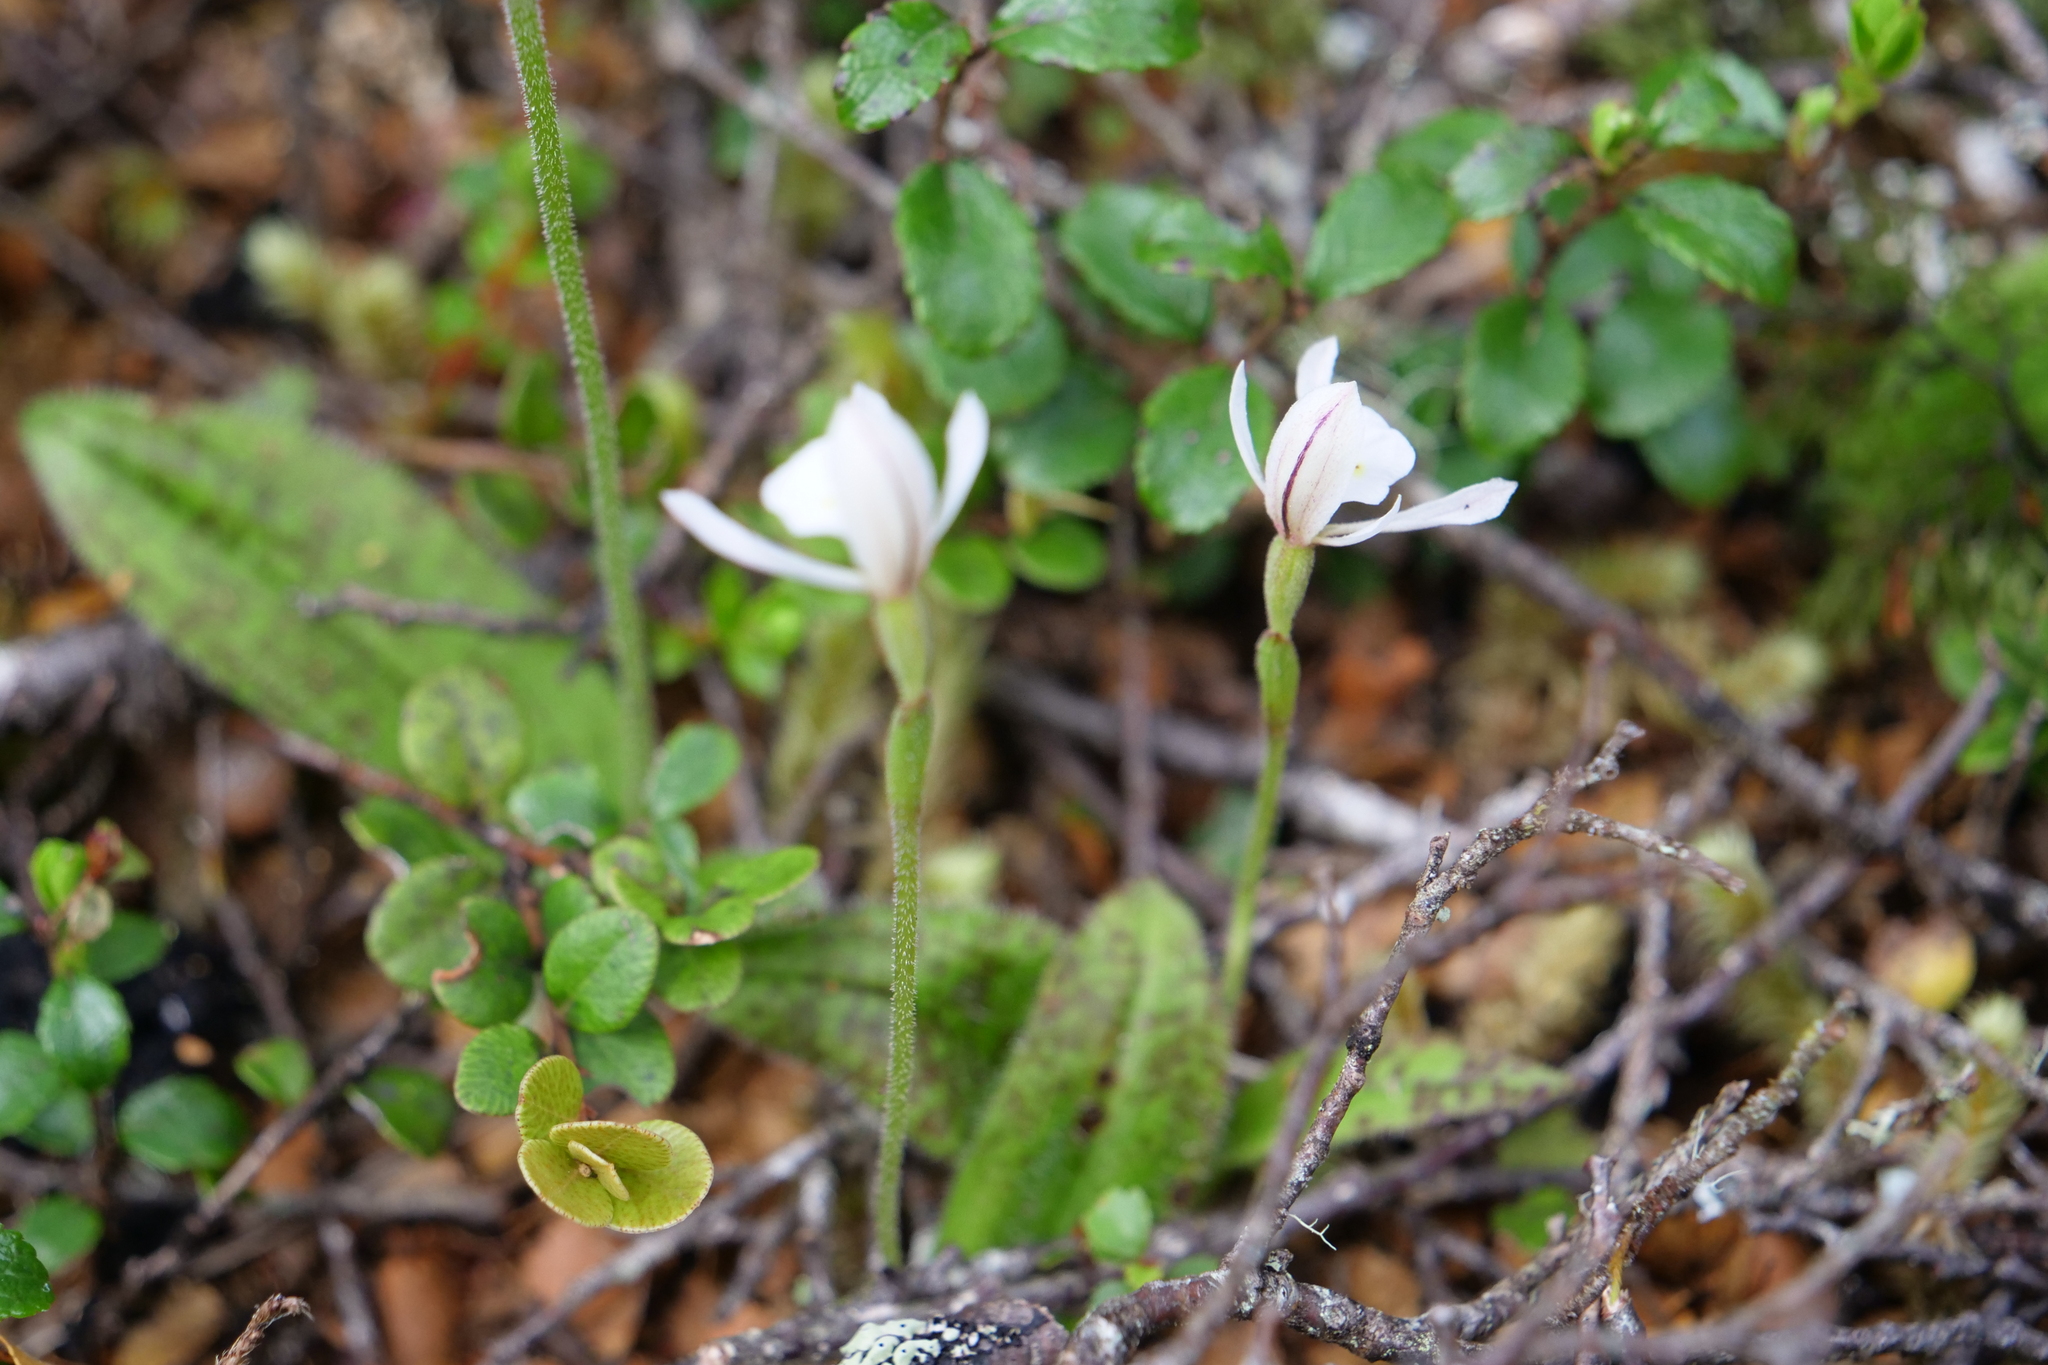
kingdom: Plantae
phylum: Tracheophyta
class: Liliopsida
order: Asparagales
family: Orchidaceae
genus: Aporostylis
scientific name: Aporostylis bifolia
